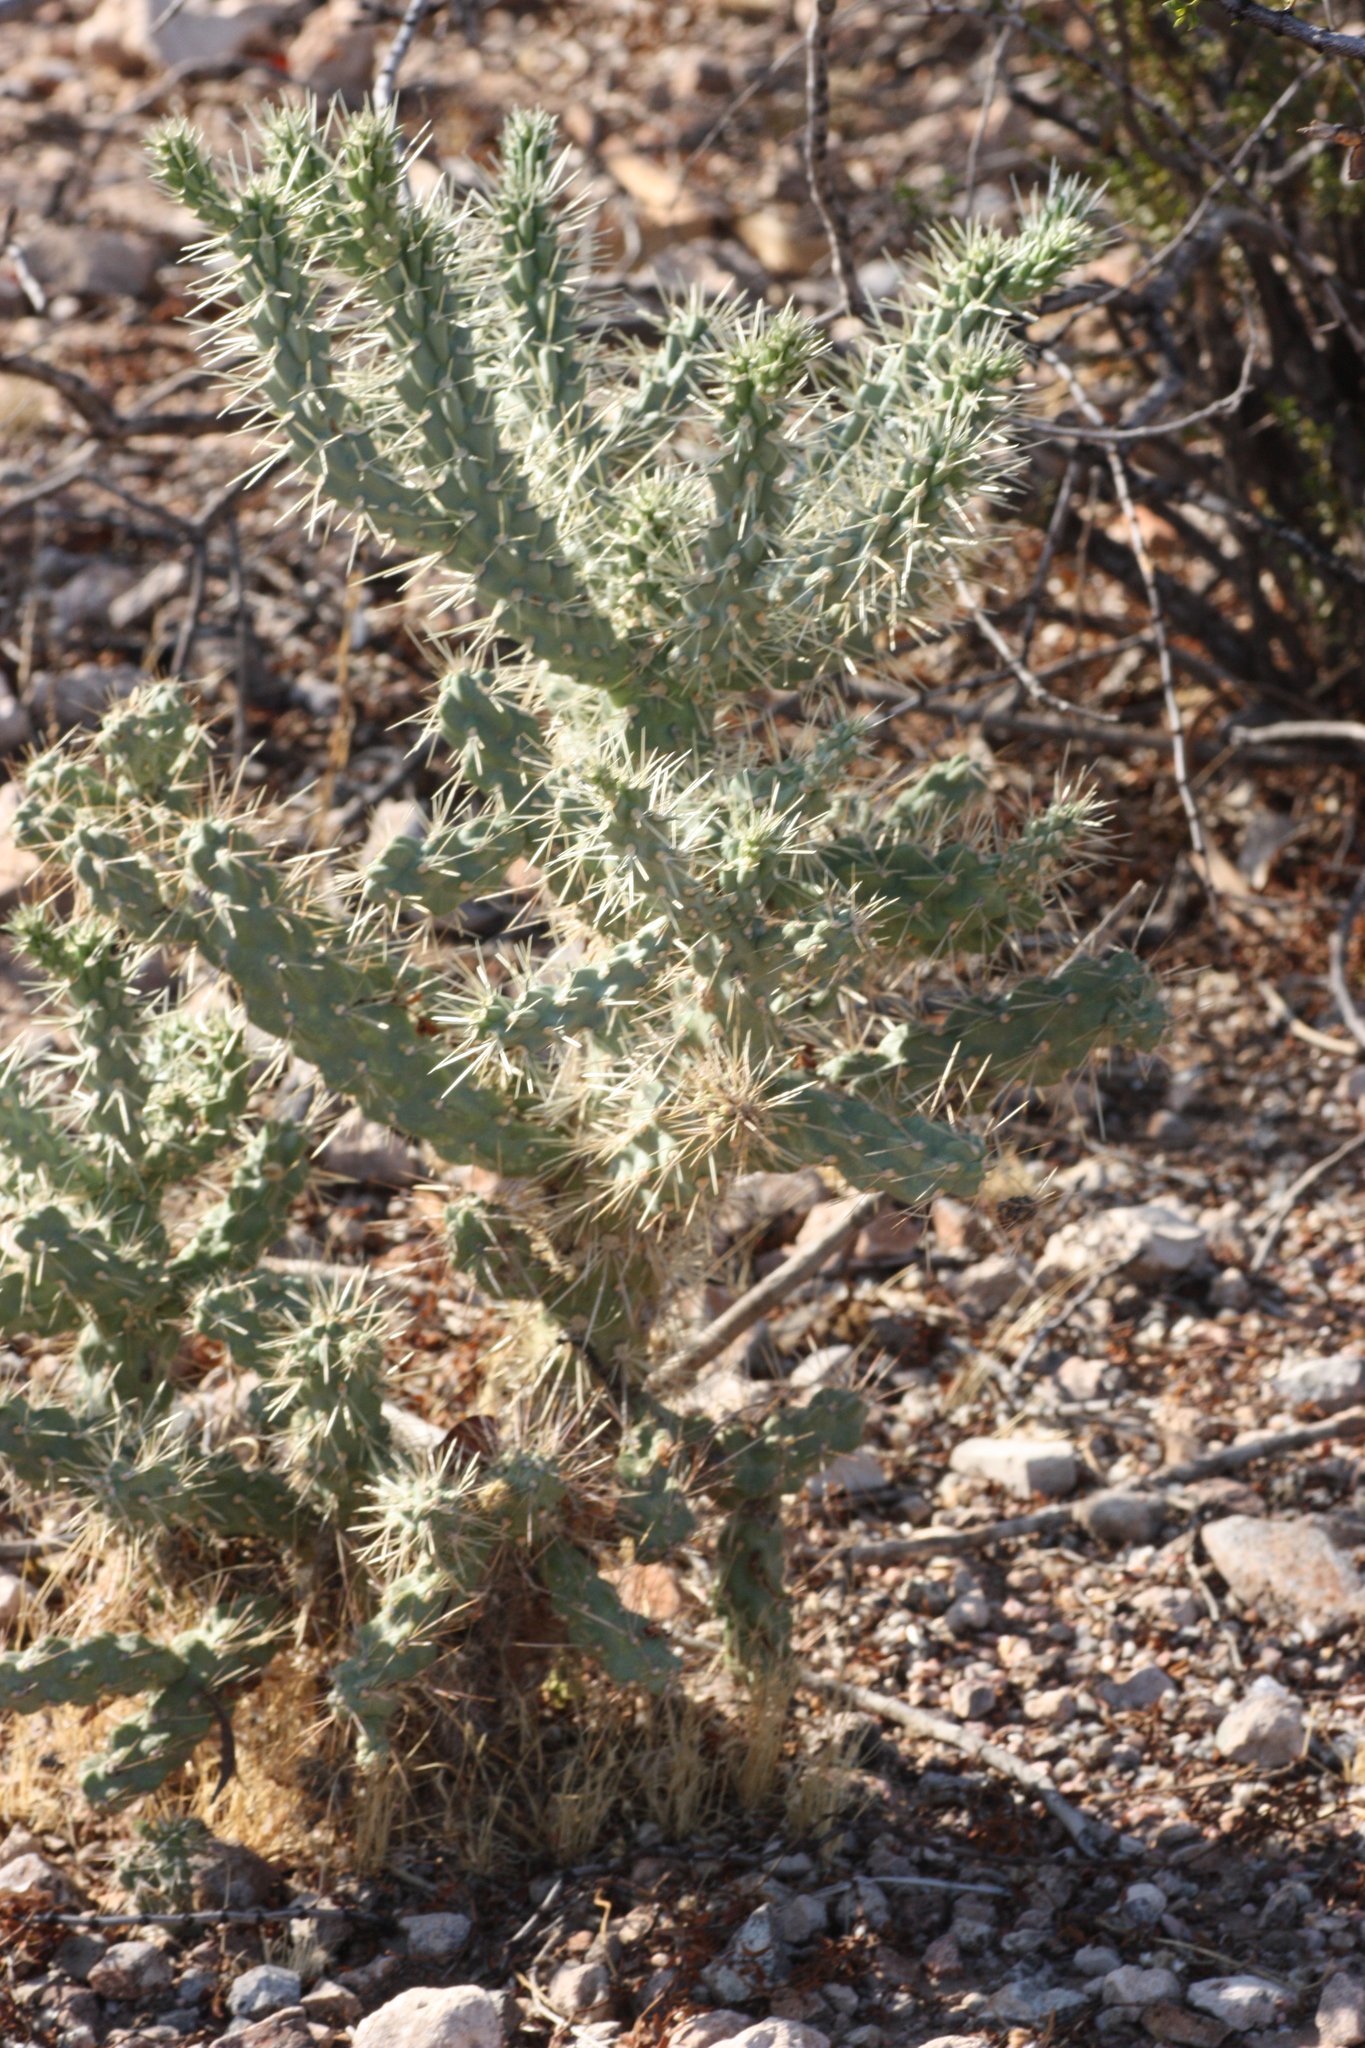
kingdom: Plantae
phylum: Tracheophyta
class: Magnoliopsida
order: Caryophyllales
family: Cactaceae
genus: Cylindropuntia
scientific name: Cylindropuntia fulgida
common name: Jumping cholla
